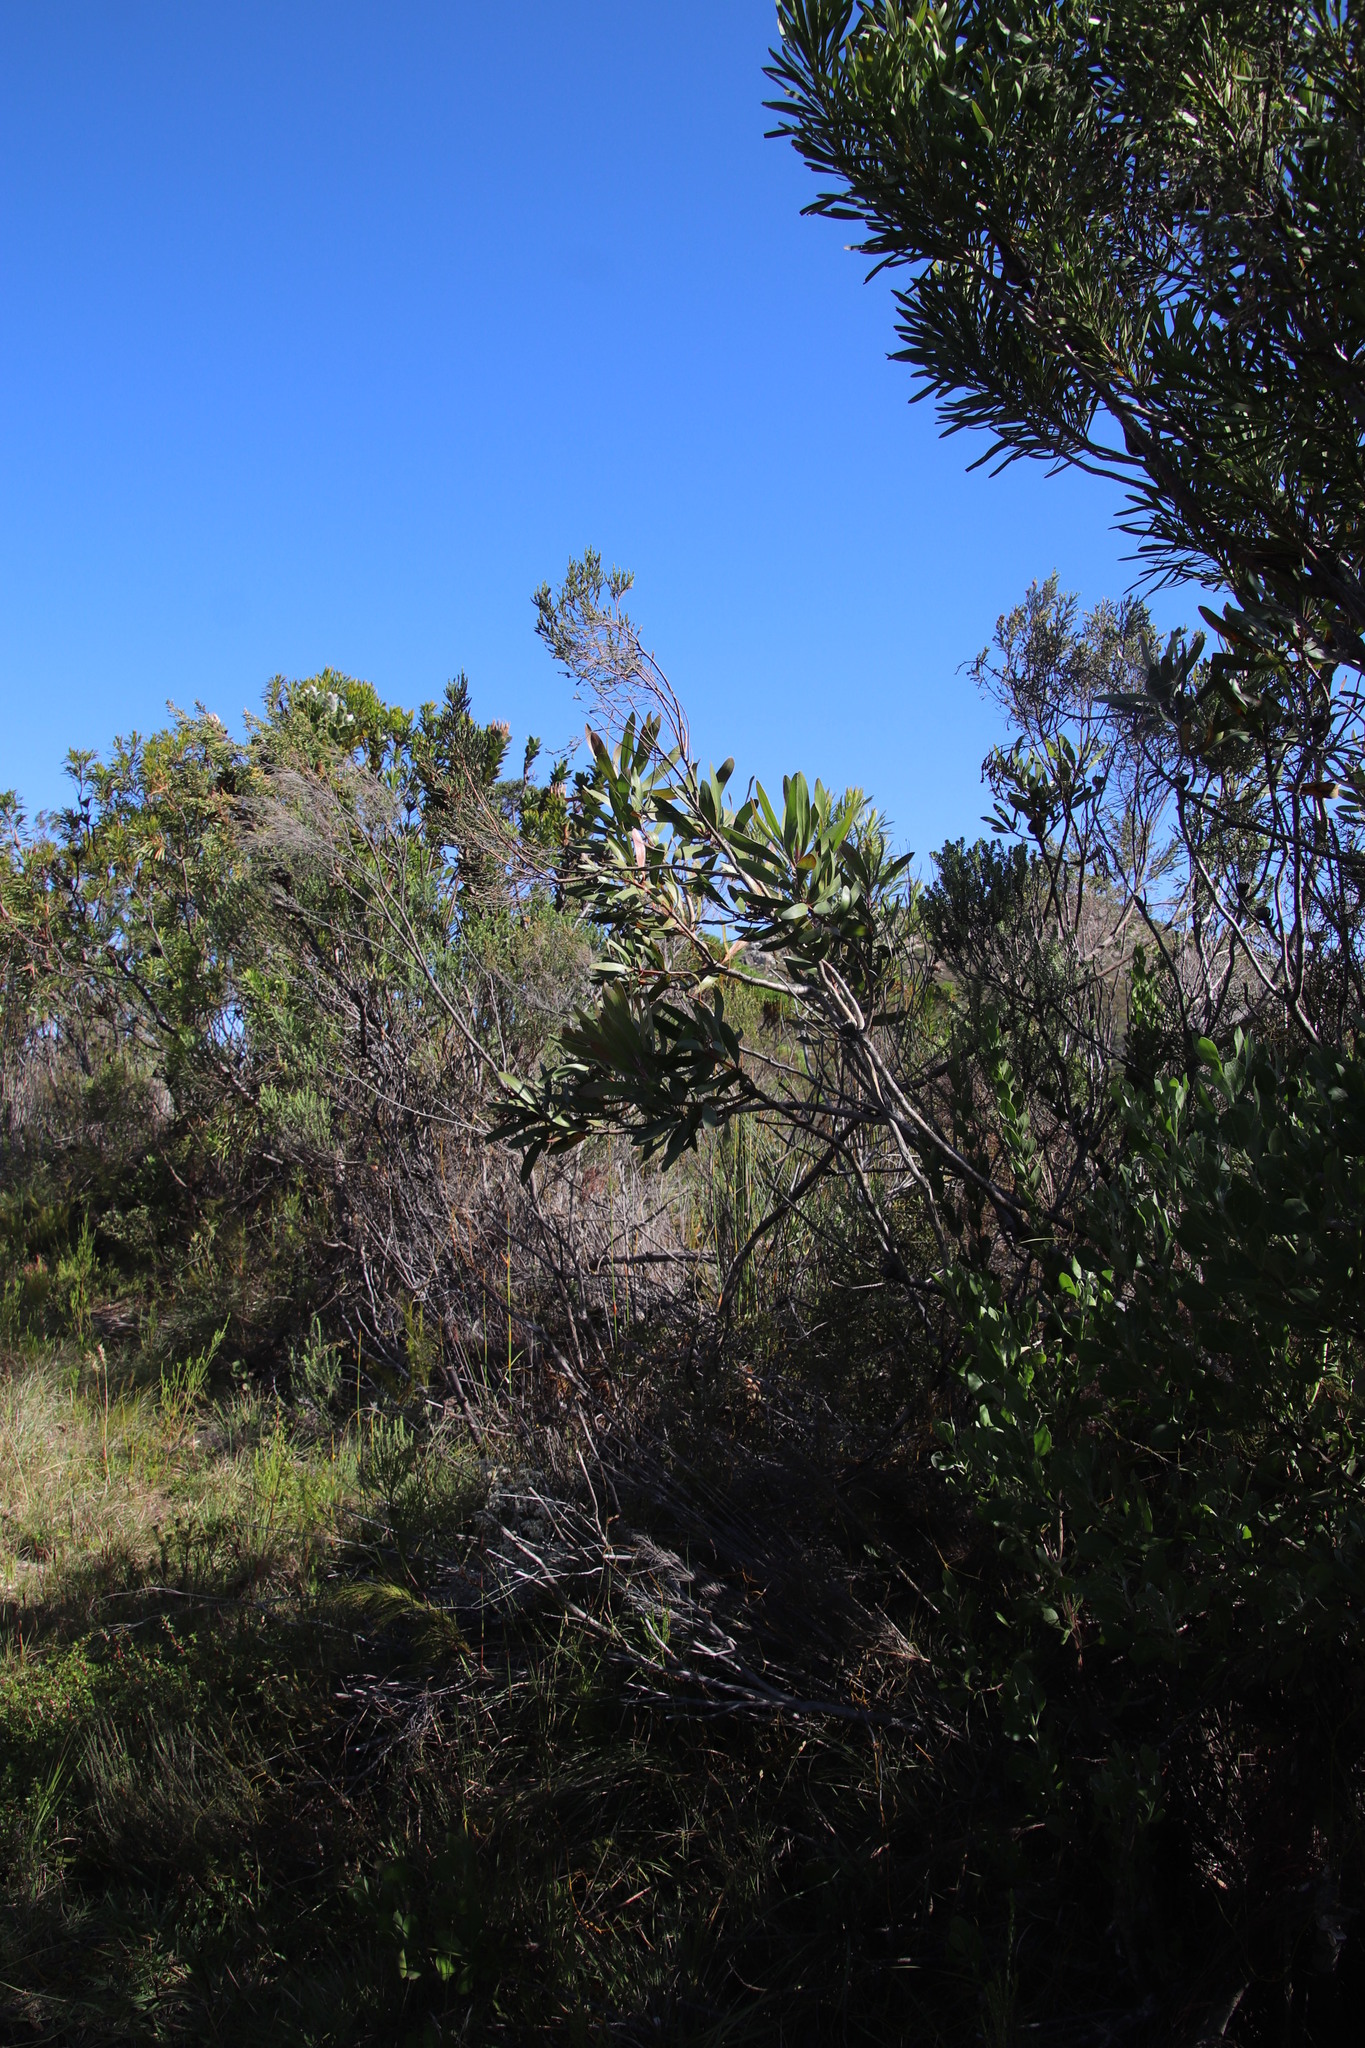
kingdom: Plantae
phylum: Tracheophyta
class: Magnoliopsida
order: Proteales
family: Proteaceae
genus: Protea
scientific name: Protea obtusifolia
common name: Bredasdorp sugarbush
